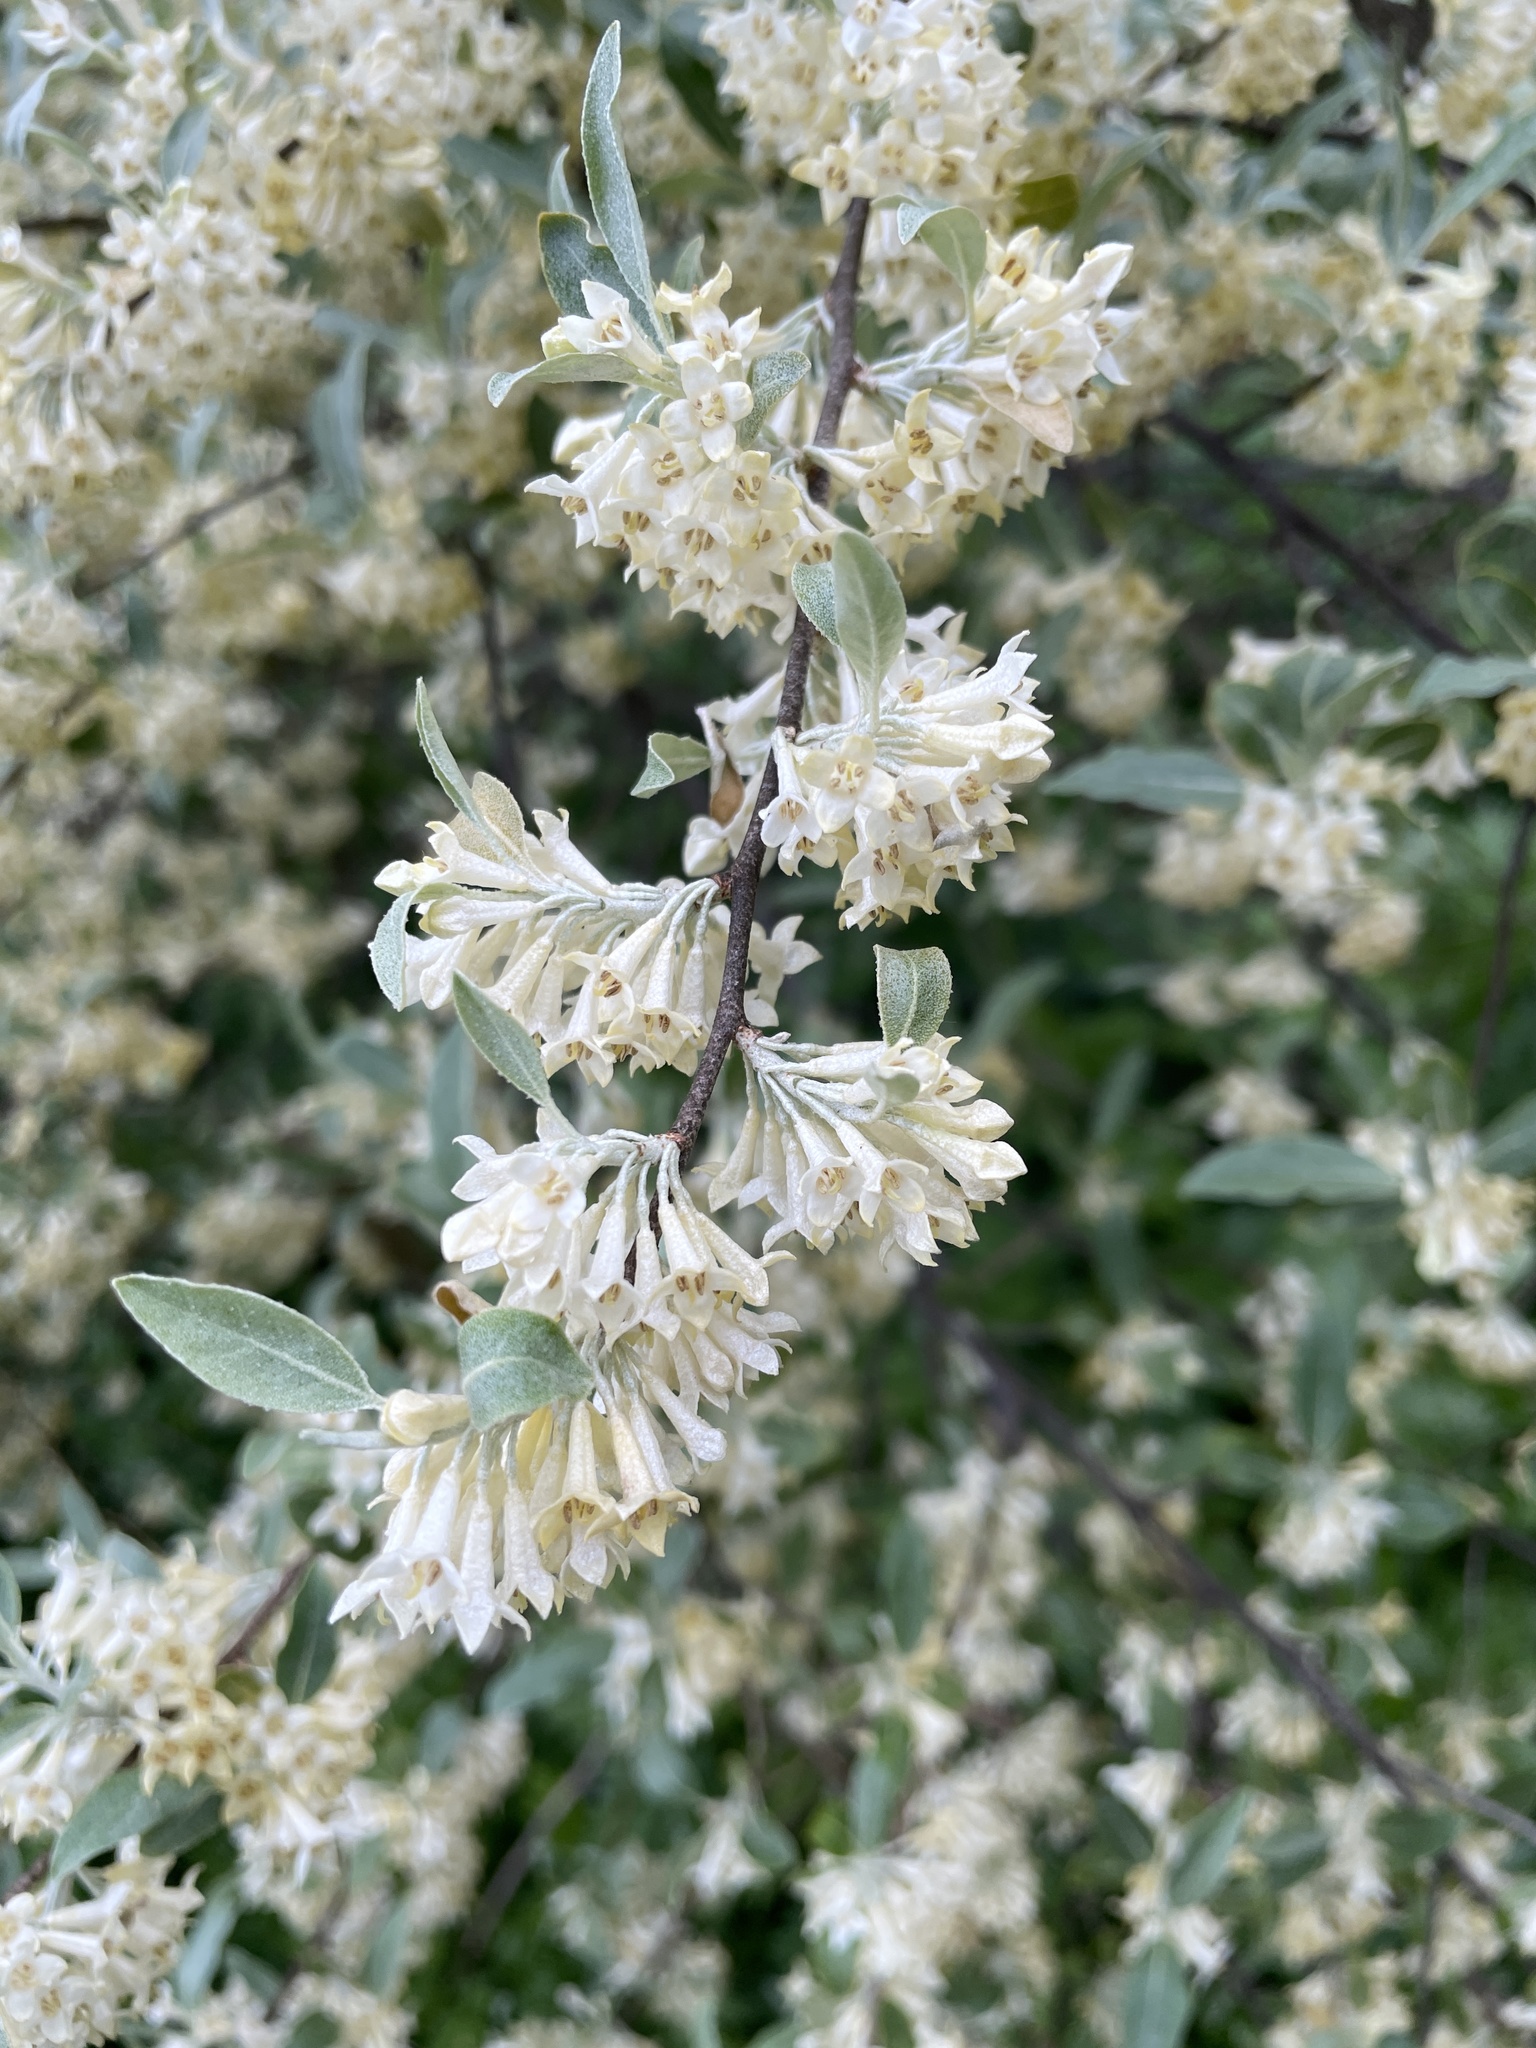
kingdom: Plantae
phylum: Tracheophyta
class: Magnoliopsida
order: Rosales
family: Elaeagnaceae
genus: Elaeagnus
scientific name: Elaeagnus umbellata
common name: Autumn olive
